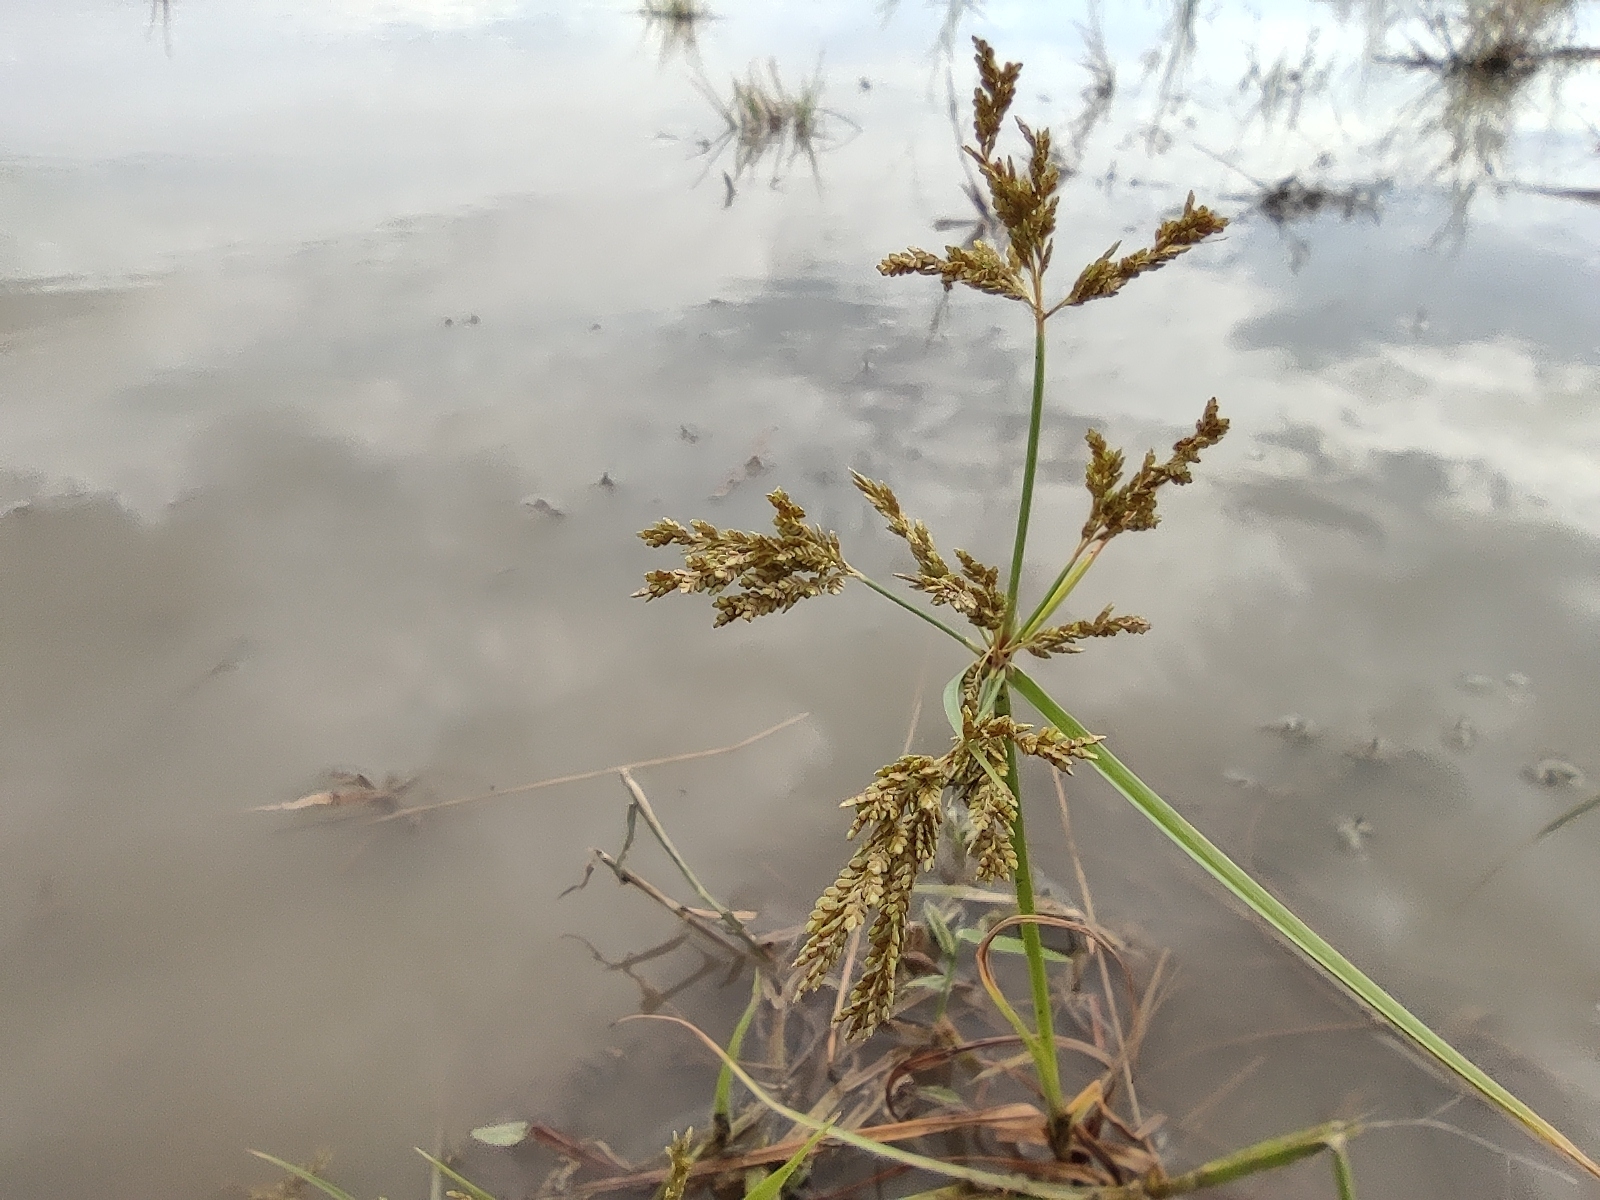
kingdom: Plantae
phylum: Tracheophyta
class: Liliopsida
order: Poales
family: Cyperaceae
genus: Cyperus
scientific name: Cyperus iria
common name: Ricefield flatsedge
